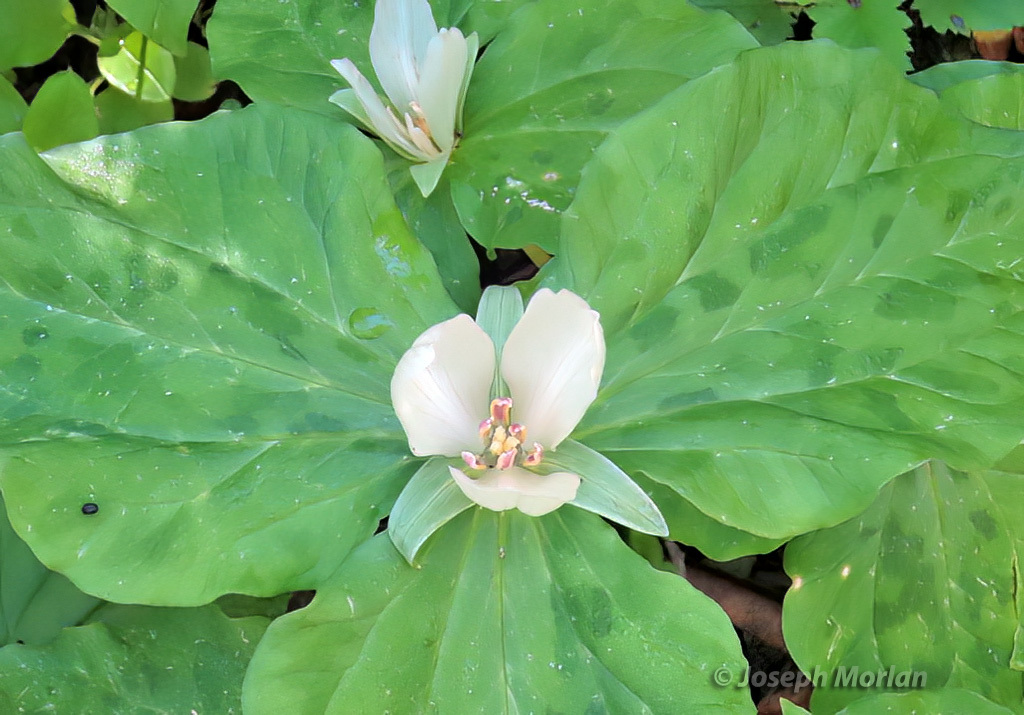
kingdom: Plantae
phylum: Tracheophyta
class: Liliopsida
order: Liliales
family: Melanthiaceae
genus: Trillium
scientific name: Trillium chloropetalum
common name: Giant trillium
